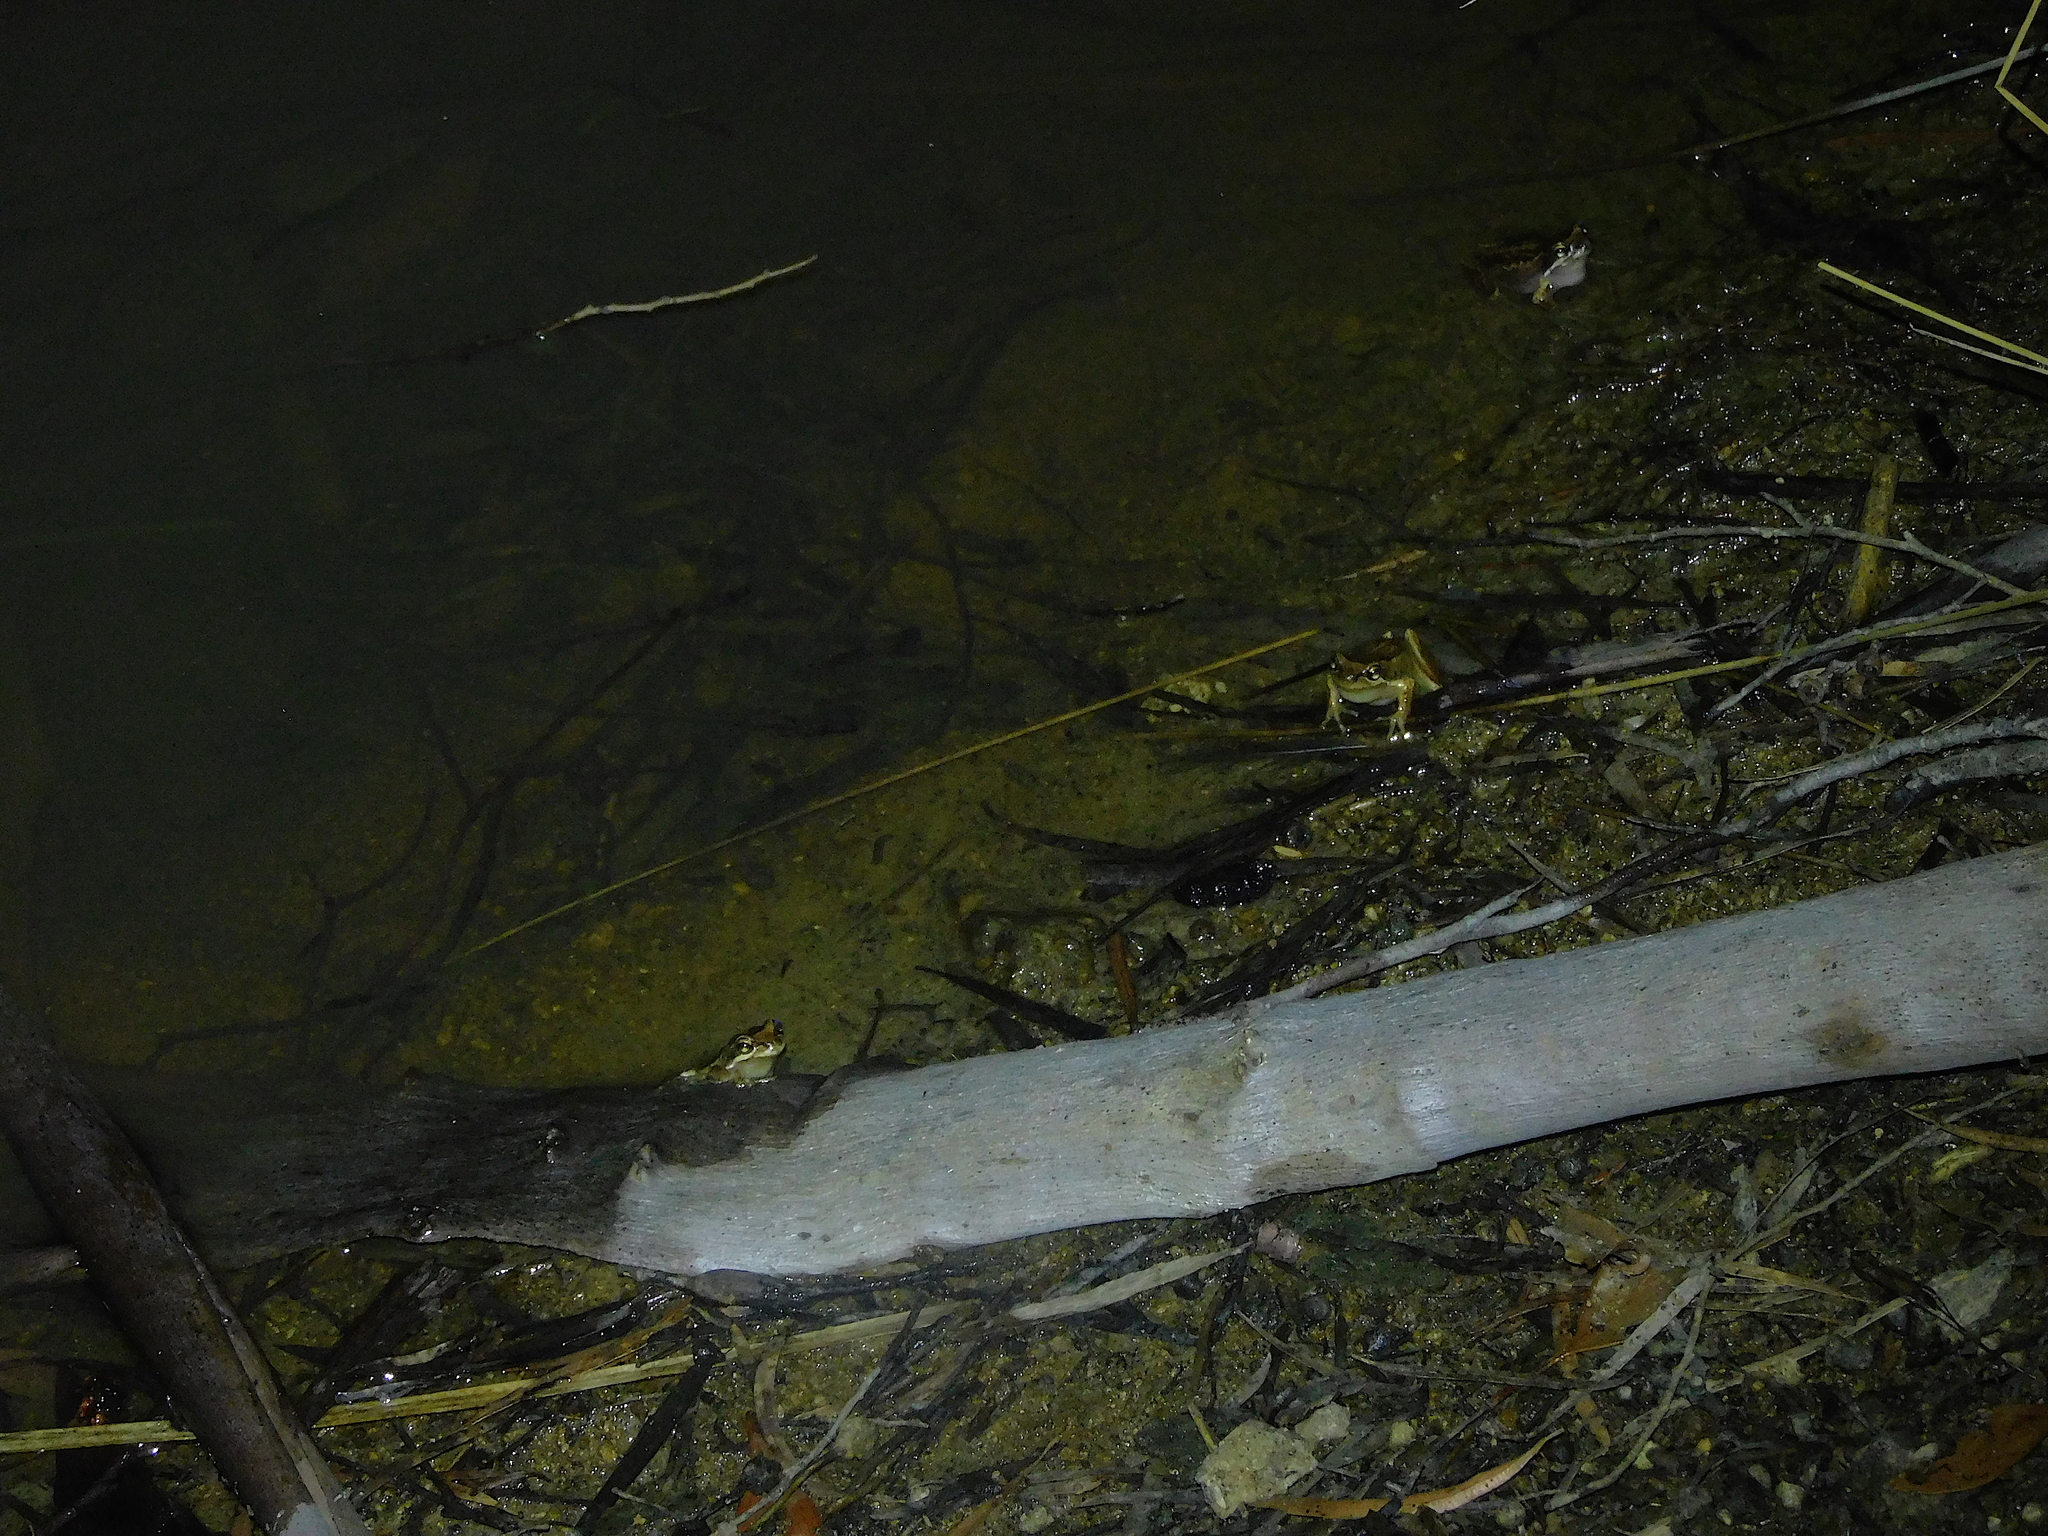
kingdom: Animalia
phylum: Chordata
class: Amphibia
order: Anura
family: Pelodryadidae
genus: Litoria
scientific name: Litoria ewingii
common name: Southern brown tree frog
